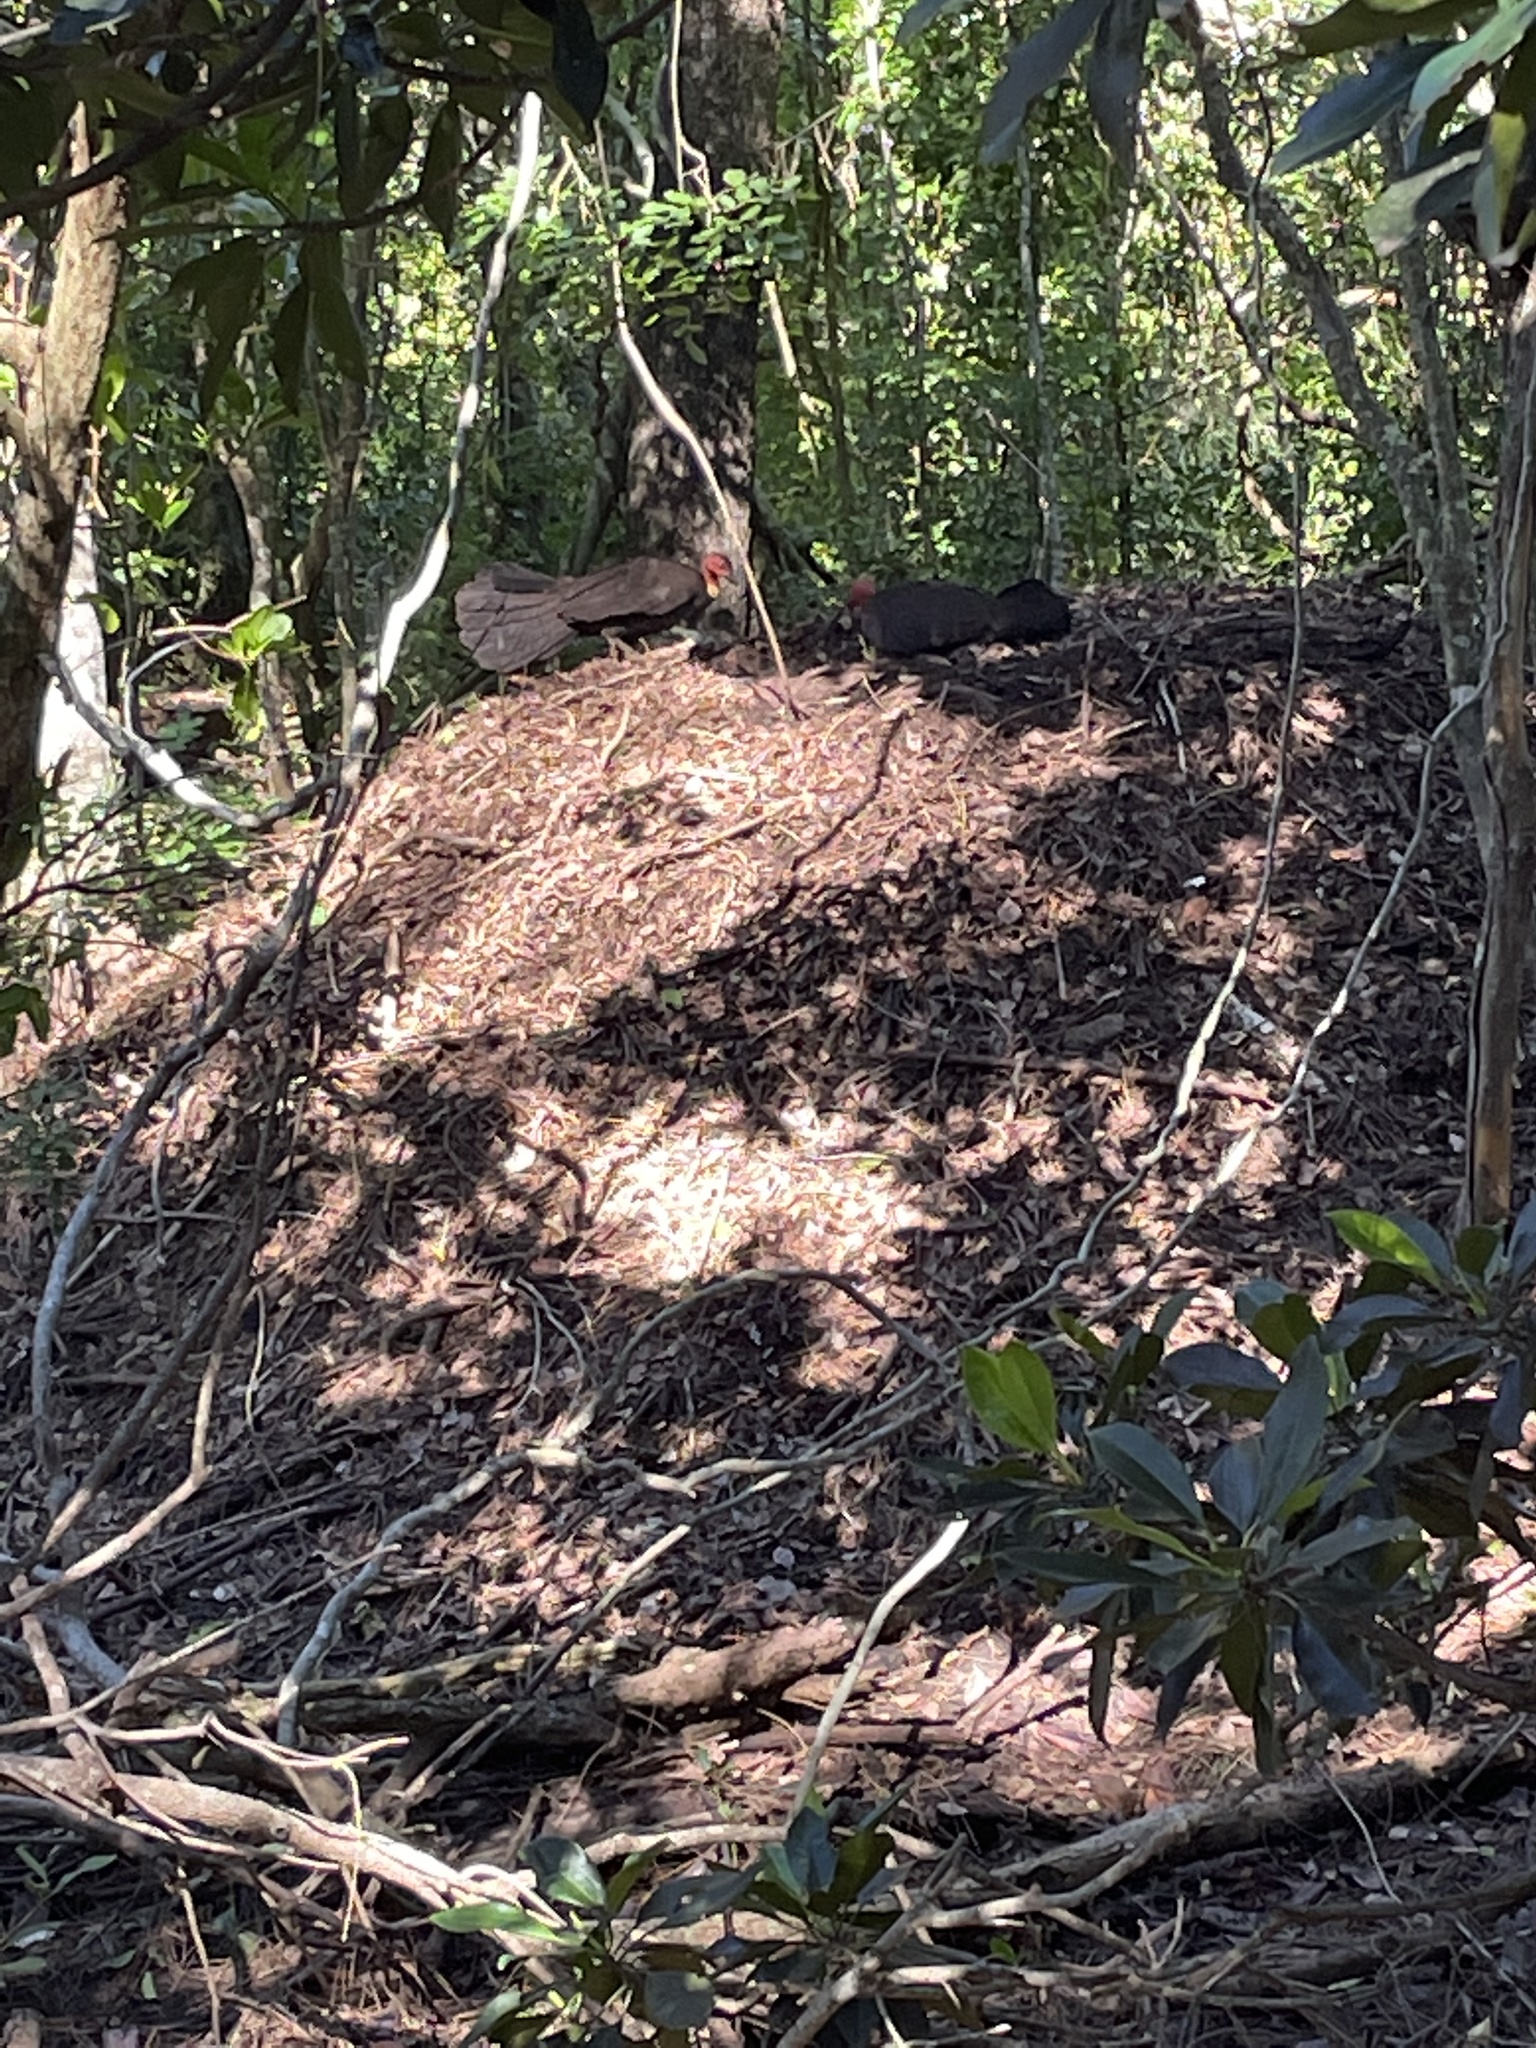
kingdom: Animalia
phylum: Chordata
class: Aves
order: Galliformes
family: Megapodiidae
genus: Alectura
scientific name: Alectura lathami
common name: Australian brushturkey
